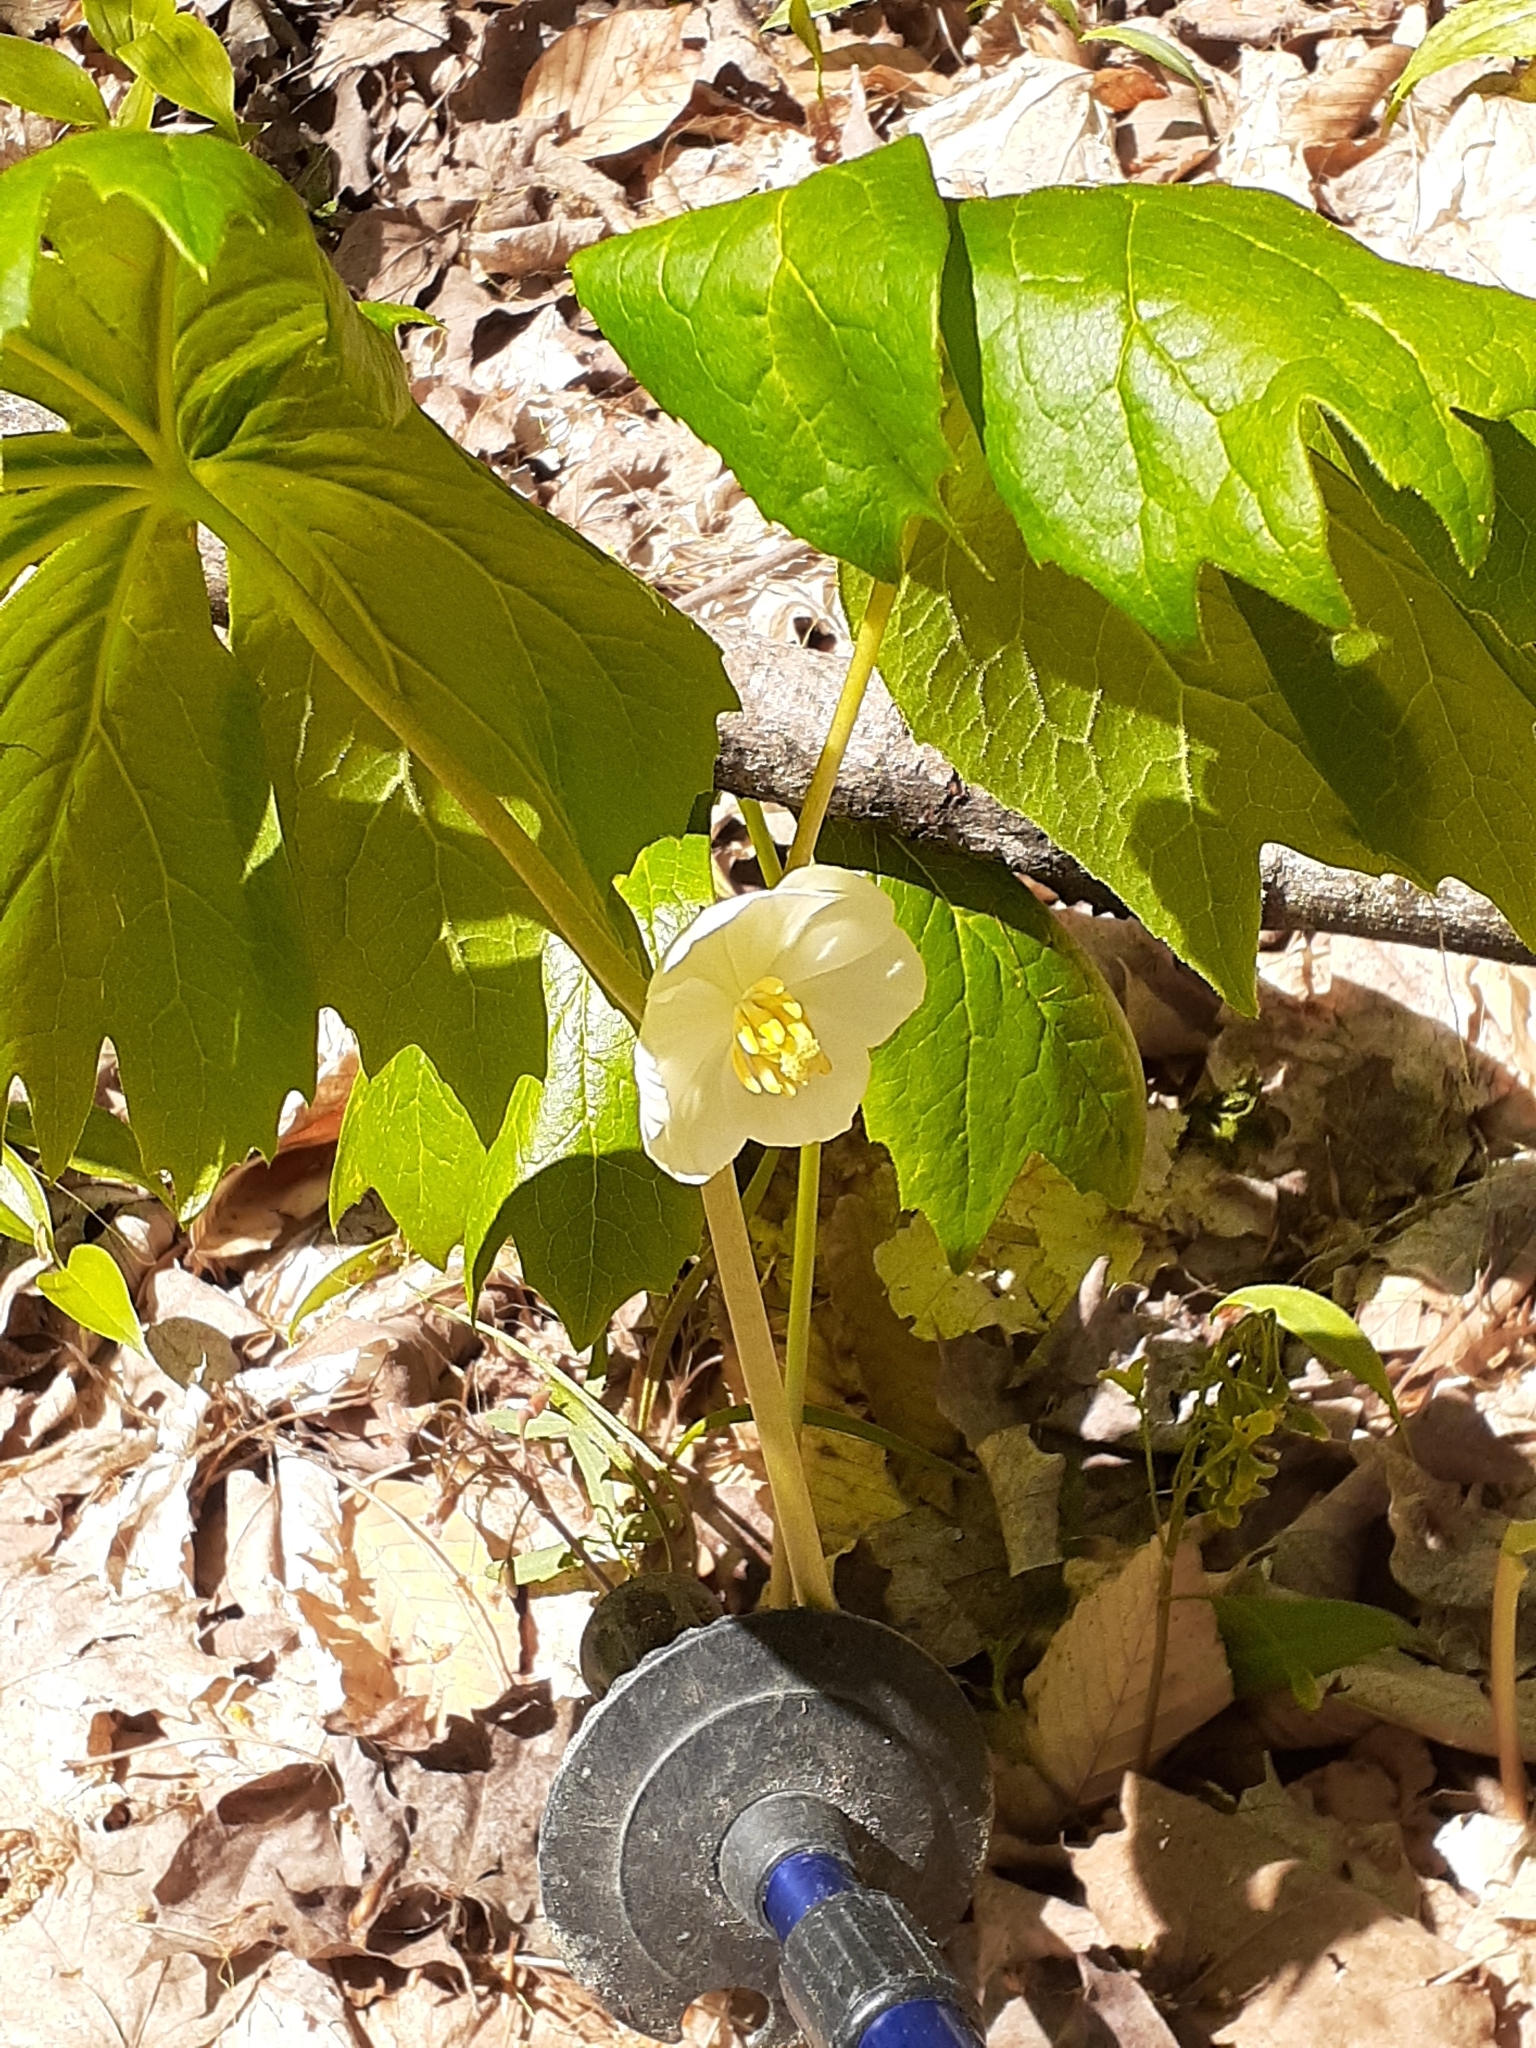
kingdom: Plantae
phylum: Tracheophyta
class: Magnoliopsida
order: Ranunculales
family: Berberidaceae
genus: Podophyllum
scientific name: Podophyllum peltatum
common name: Wild mandrake
